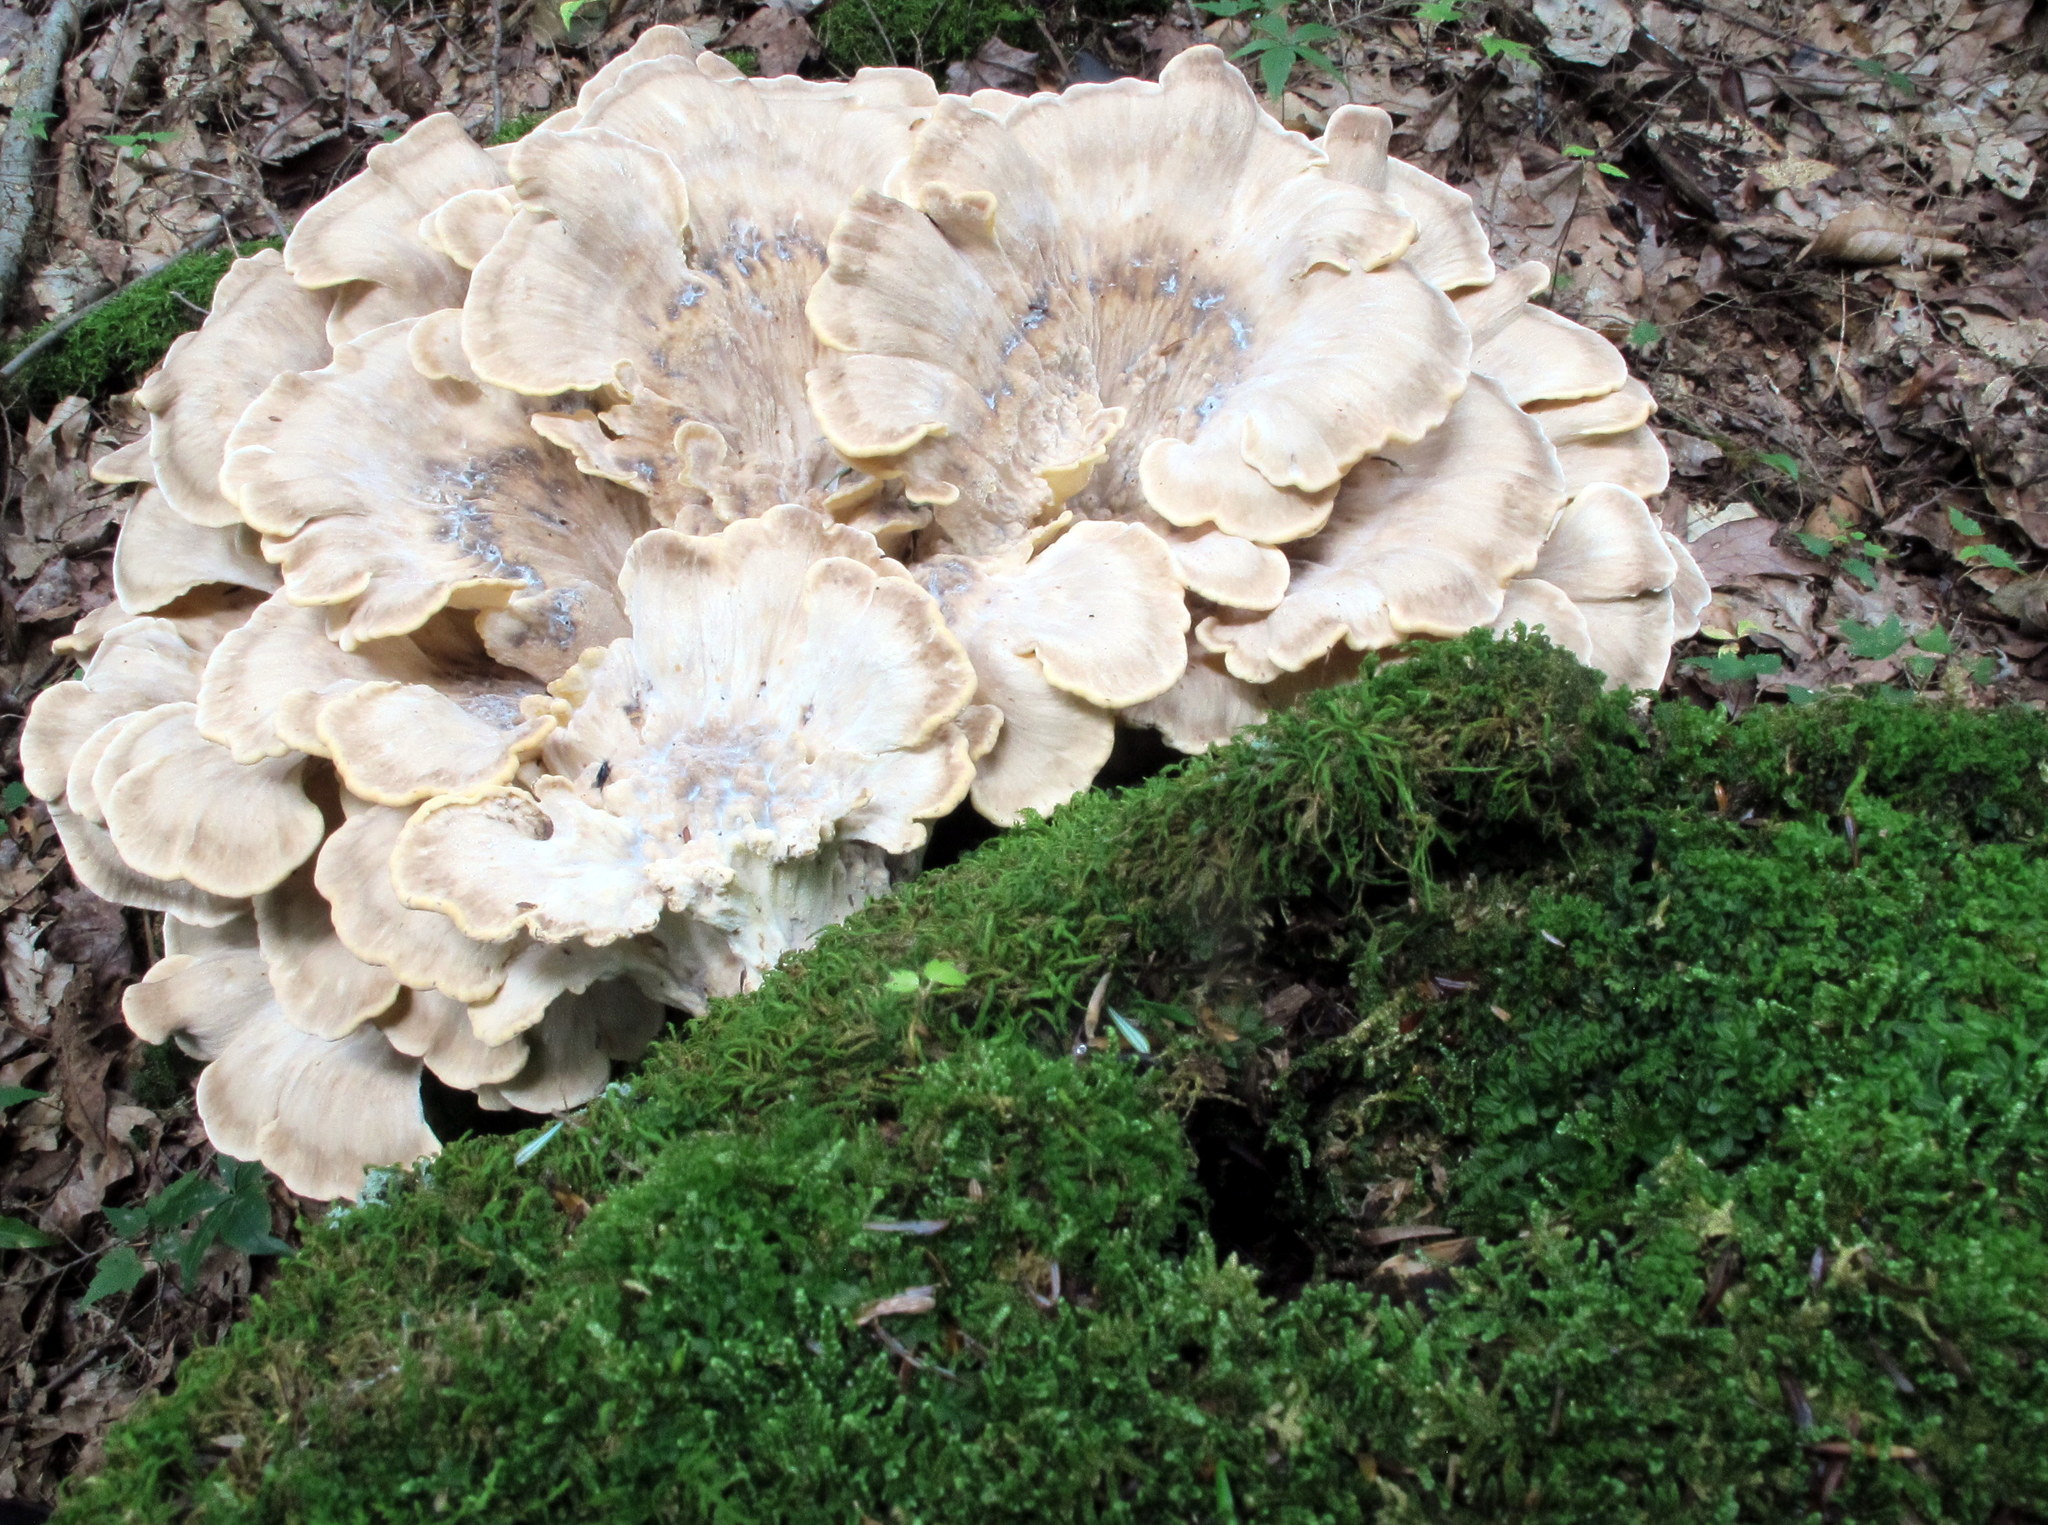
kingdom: Fungi
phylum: Basidiomycota
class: Agaricomycetes
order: Polyporales
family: Meripilaceae
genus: Meripilus
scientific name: Meripilus sumstinei
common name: Black-staining polypore
